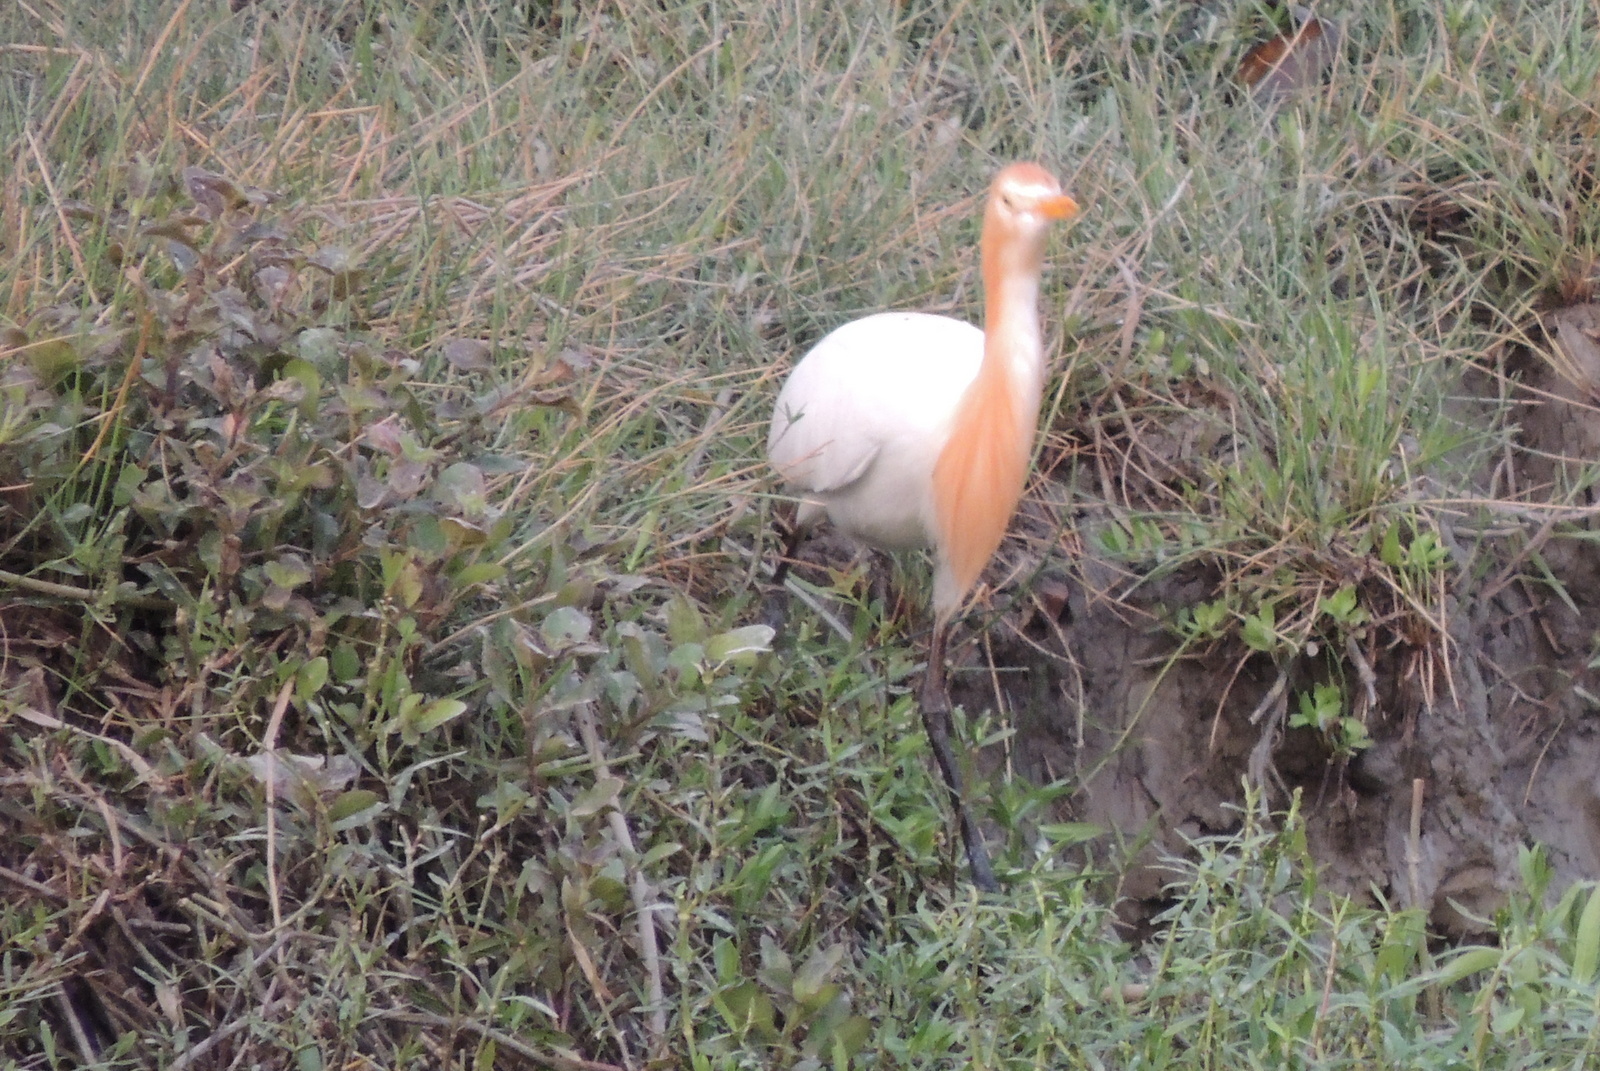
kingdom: Animalia
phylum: Chordata
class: Aves
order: Pelecaniformes
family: Ardeidae
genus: Bubulcus
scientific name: Bubulcus coromandus
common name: Eastern cattle egret
